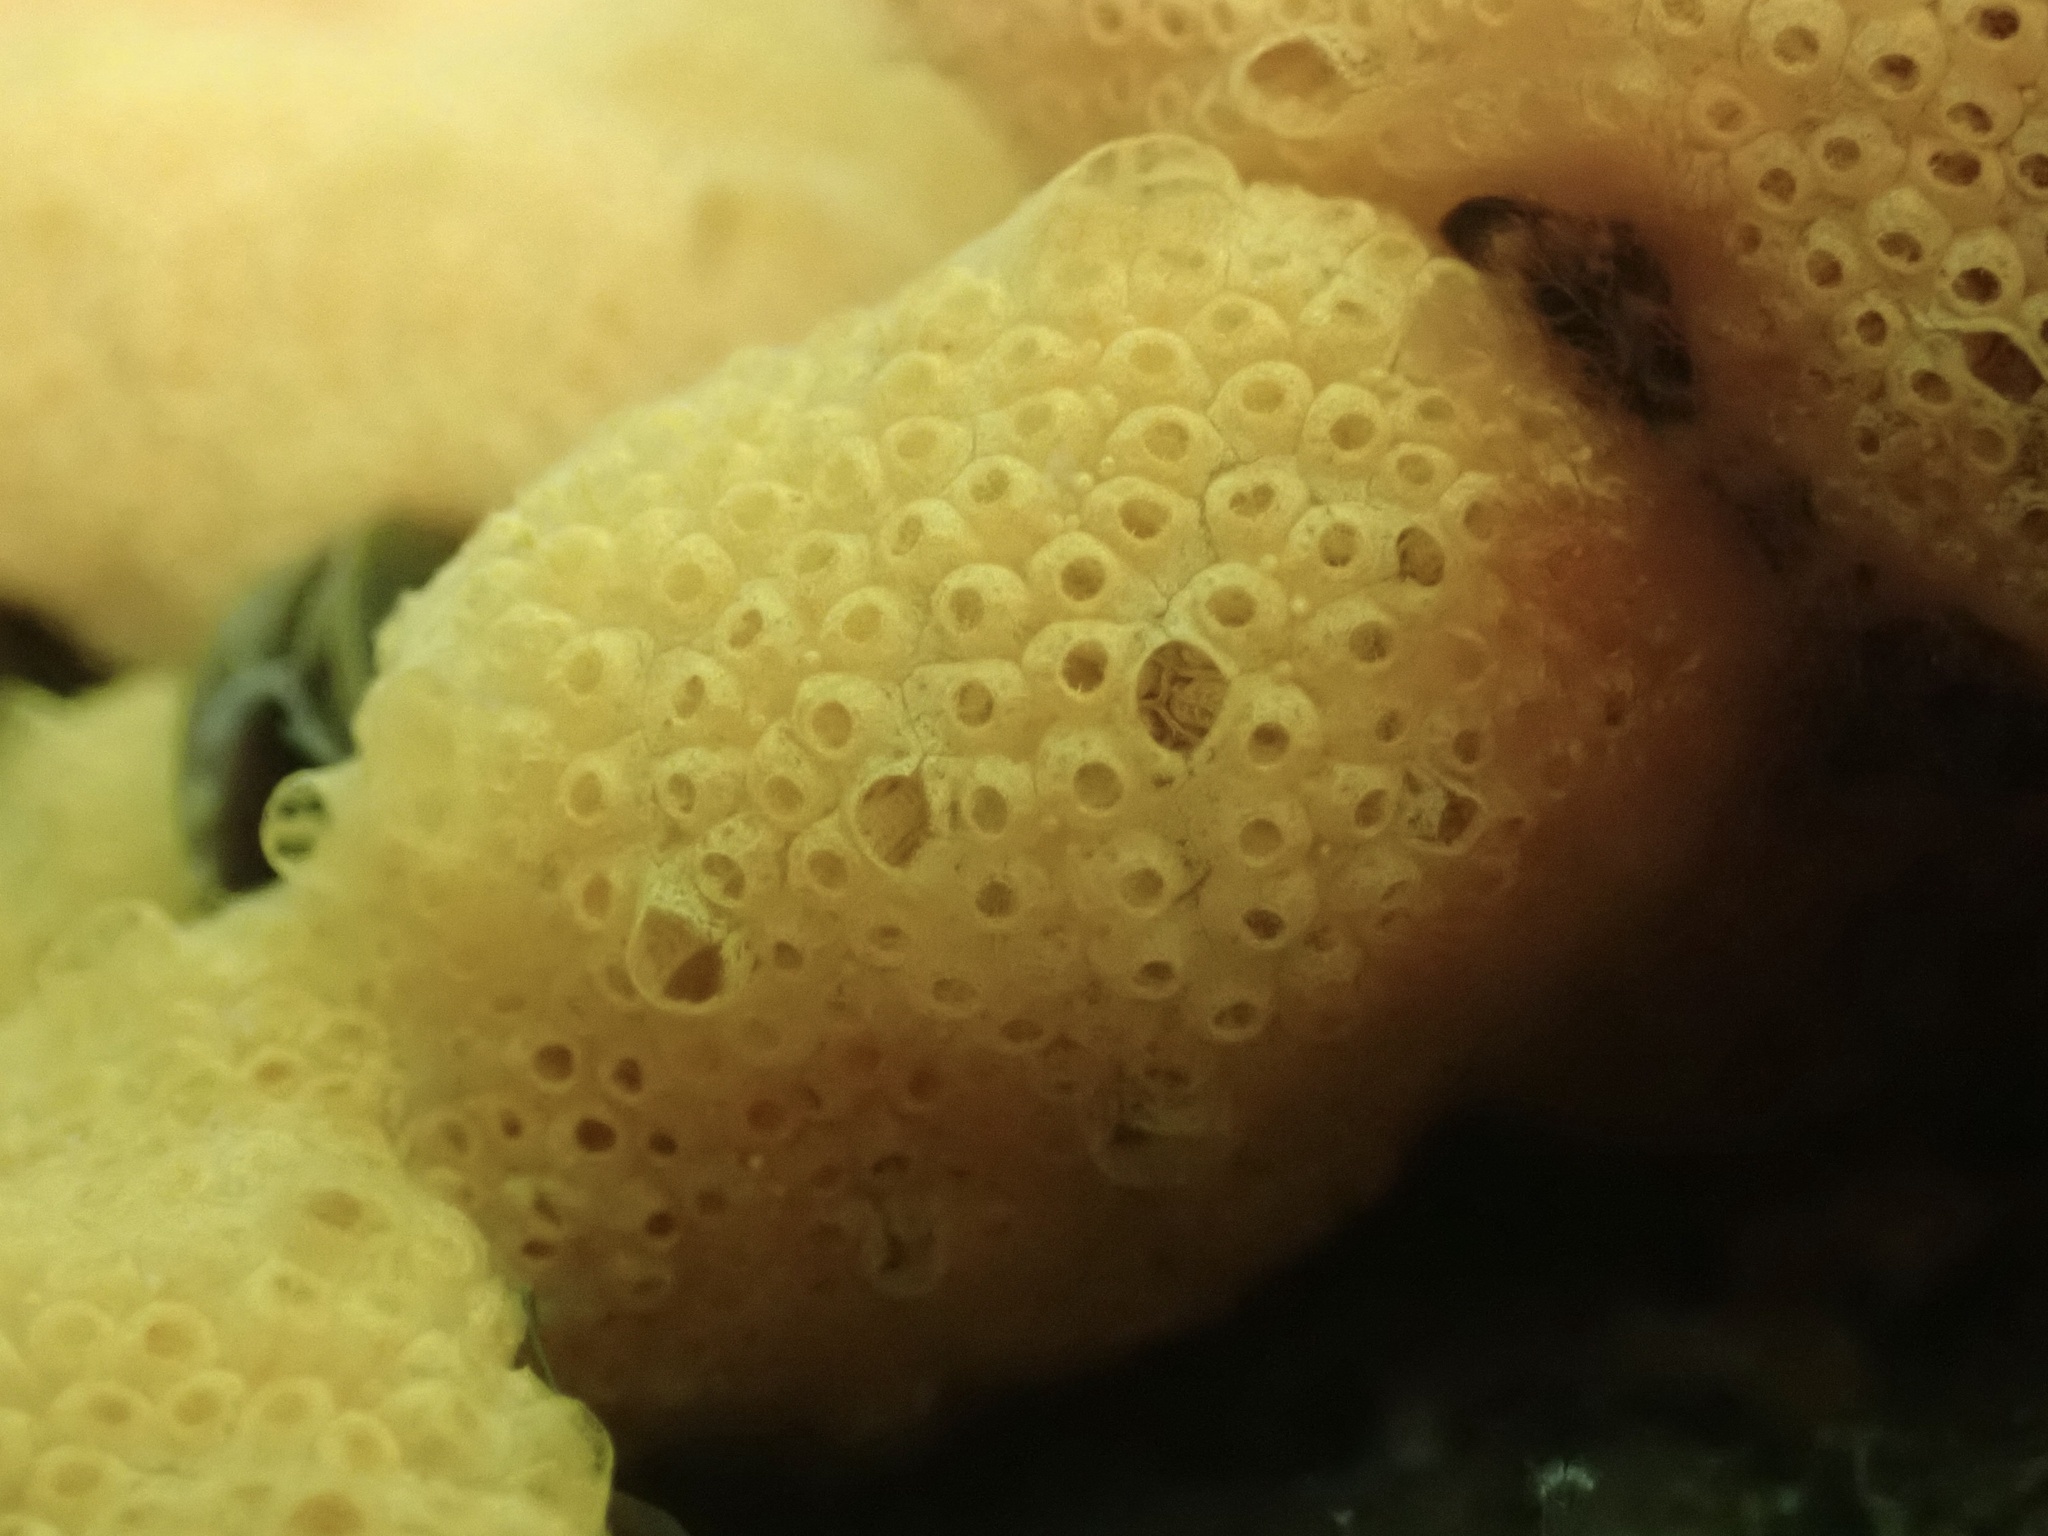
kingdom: Animalia
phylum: Chordata
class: Ascidiacea
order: Stolidobranchia
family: Styelidae
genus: Botrylloides
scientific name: Botrylloides violaceus
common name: Colonial sea squirt
